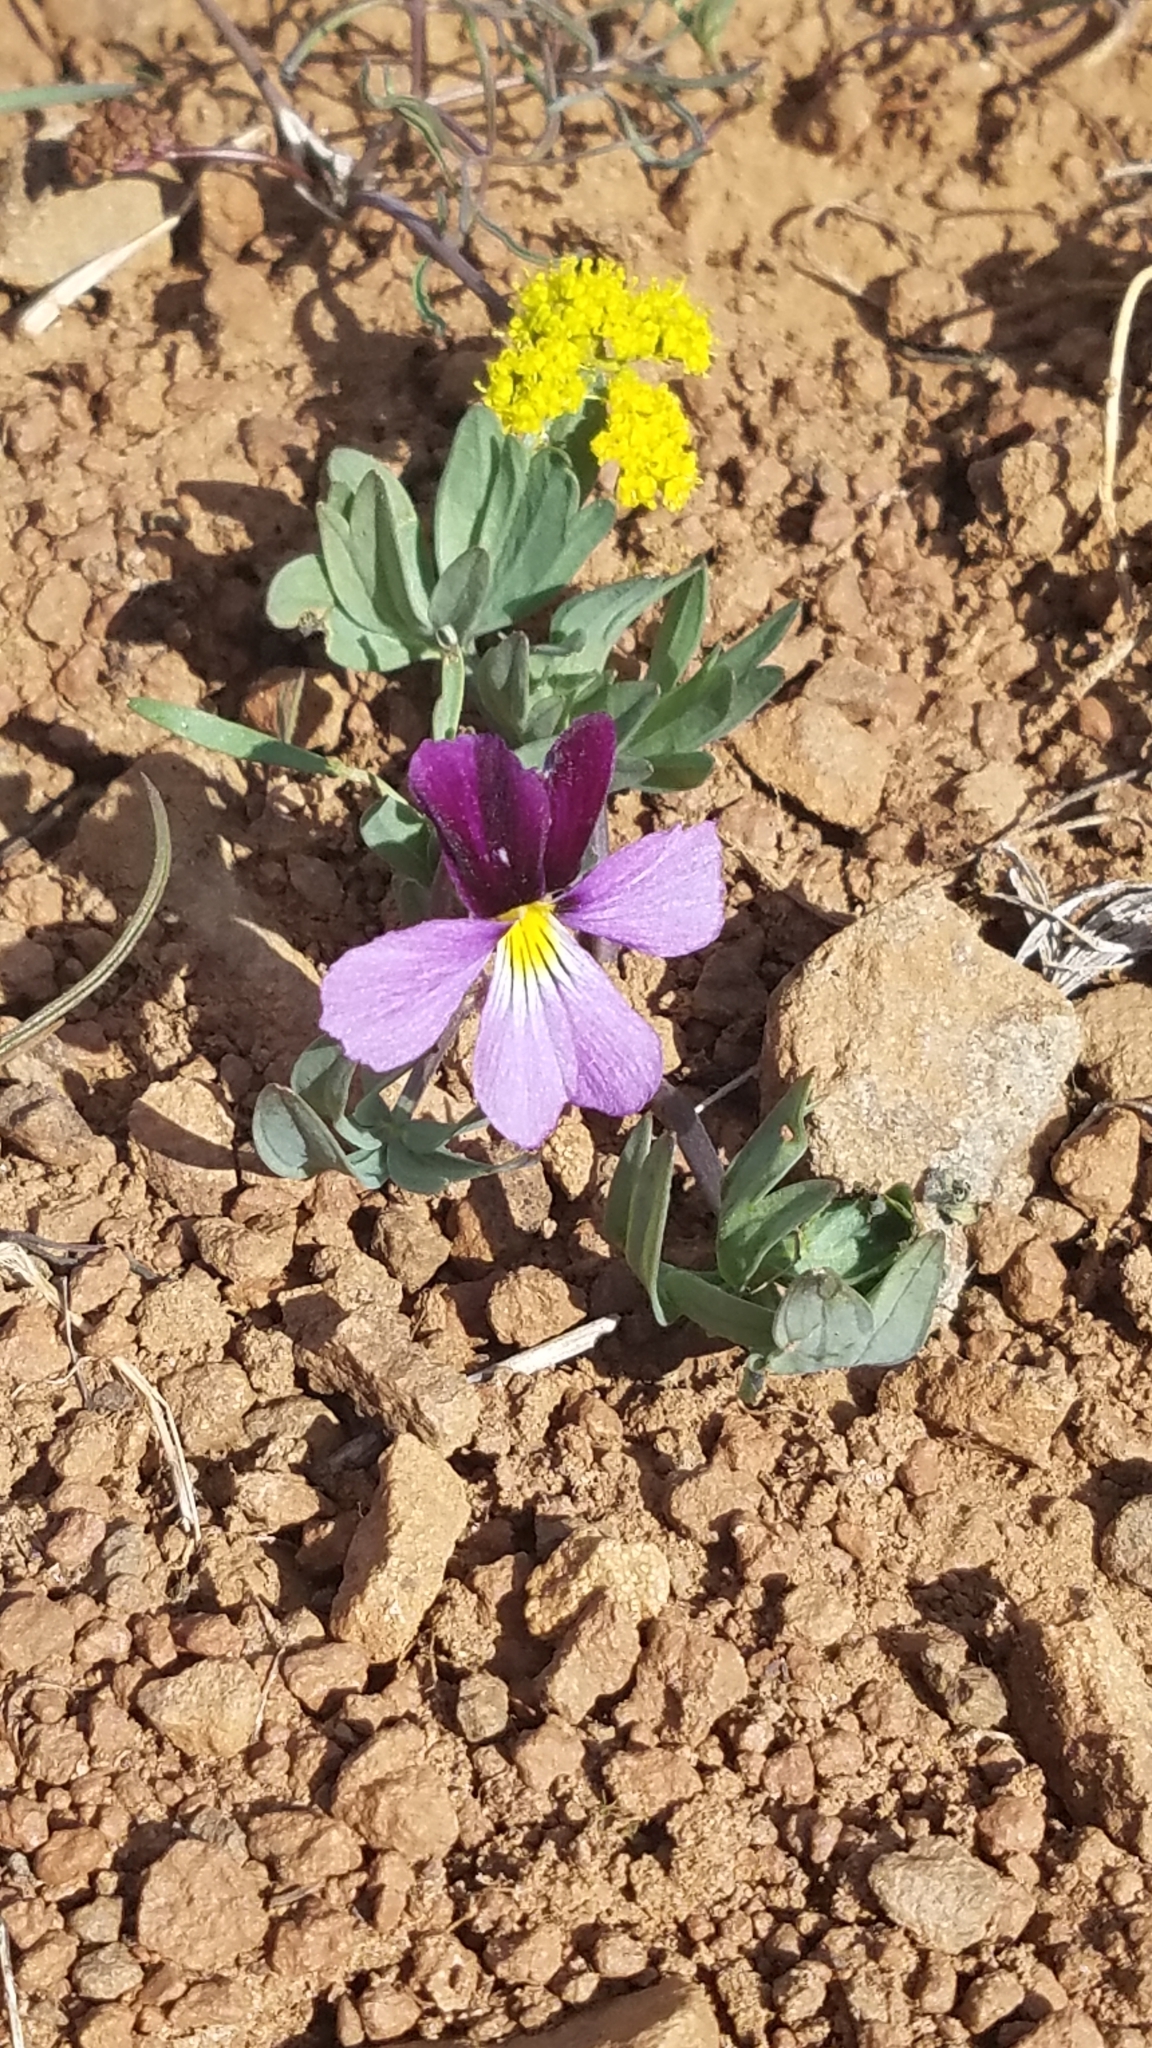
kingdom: Plantae
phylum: Tracheophyta
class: Magnoliopsida
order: Malpighiales
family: Violaceae
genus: Viola
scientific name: Viola trinervata
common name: Sagebrush violet
